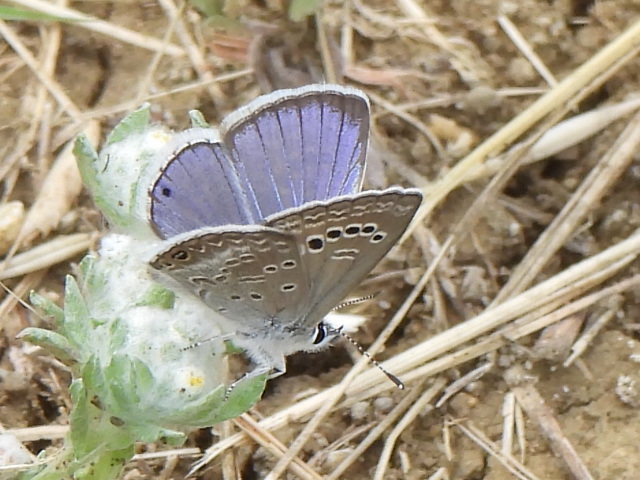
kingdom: Animalia
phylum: Arthropoda
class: Insecta
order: Lepidoptera
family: Lycaenidae
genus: Echinargus
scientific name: Echinargus isola
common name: Reakirt's blue
